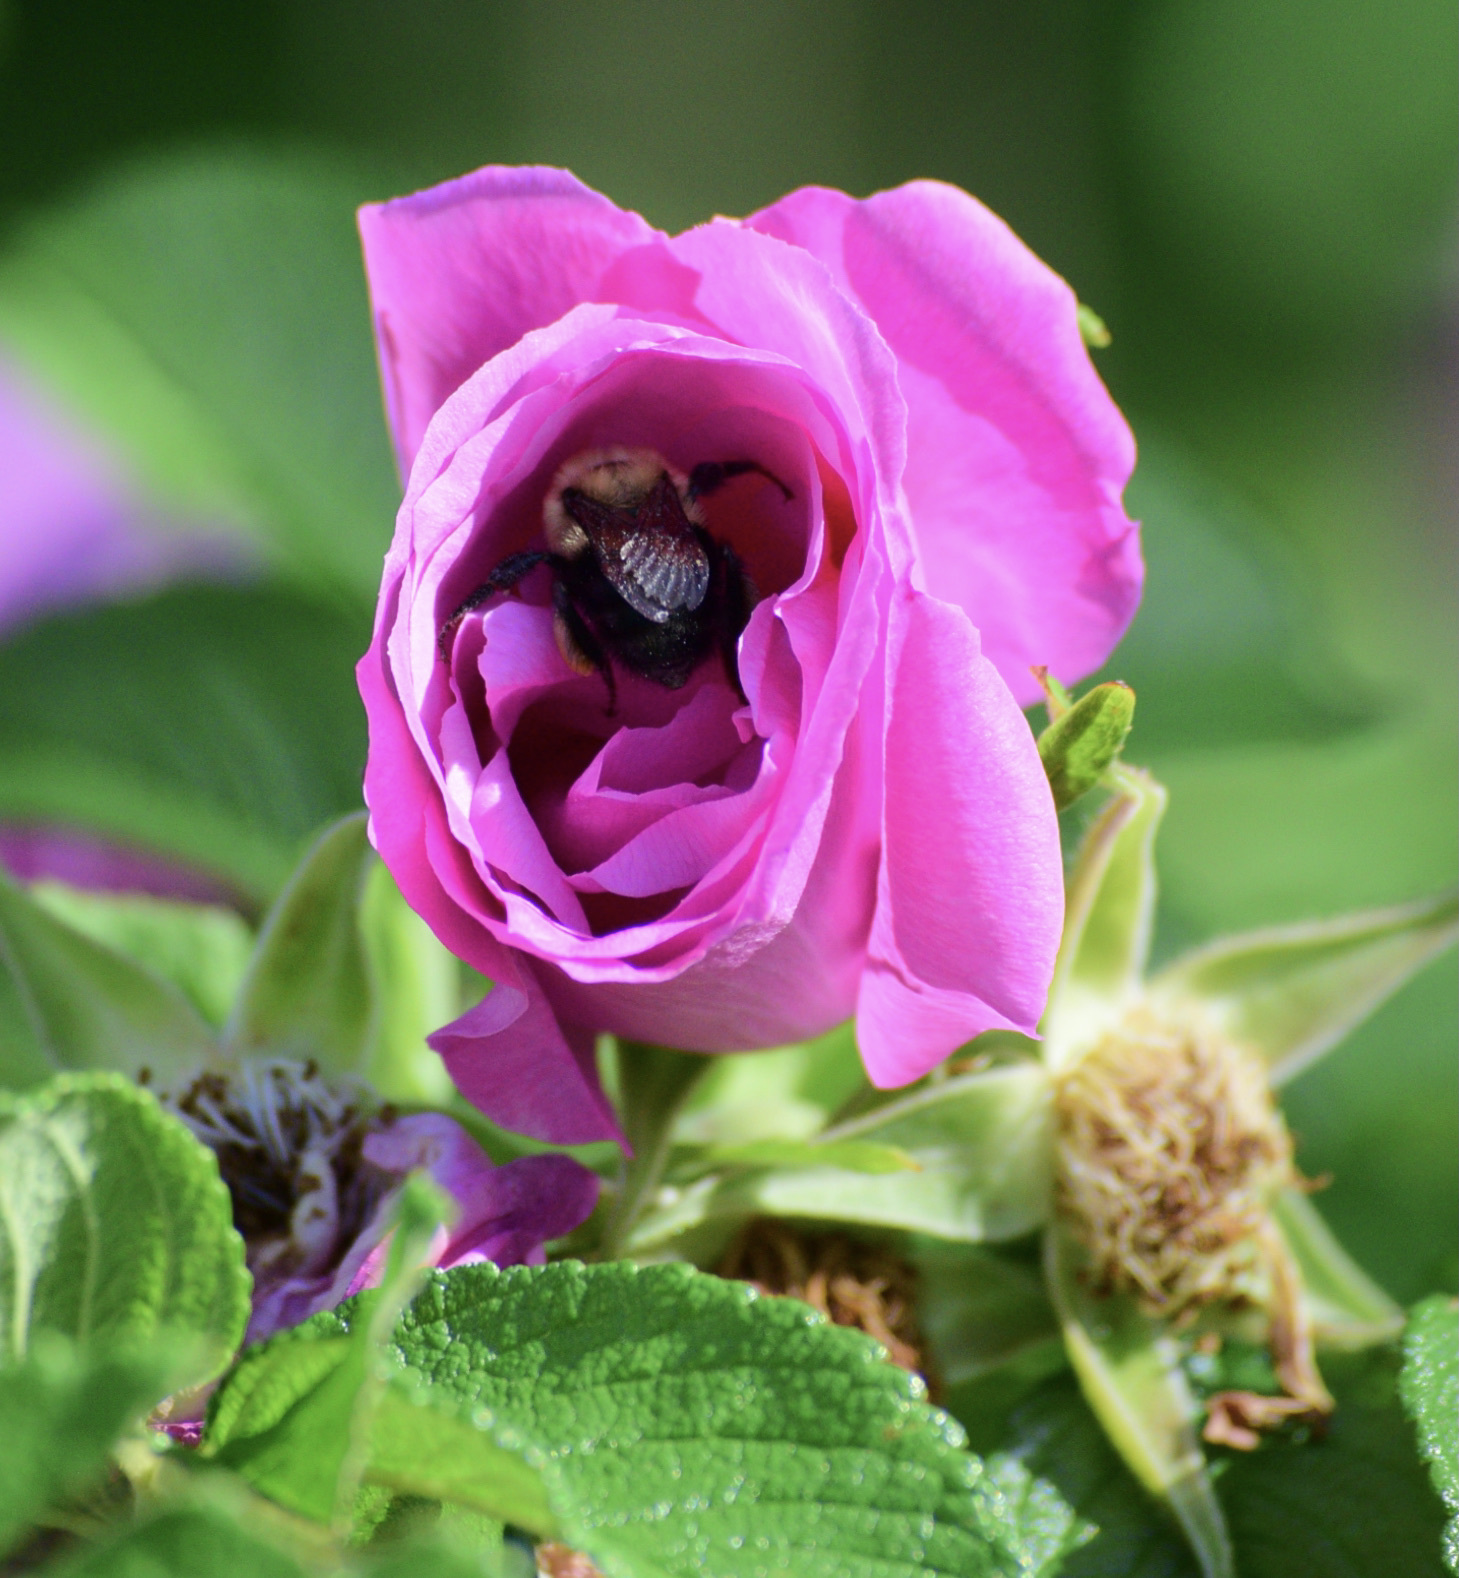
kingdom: Animalia
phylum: Arthropoda
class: Insecta
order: Hymenoptera
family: Apidae
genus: Bombus
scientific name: Bombus bimaculatus
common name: Two-spotted bumble bee
